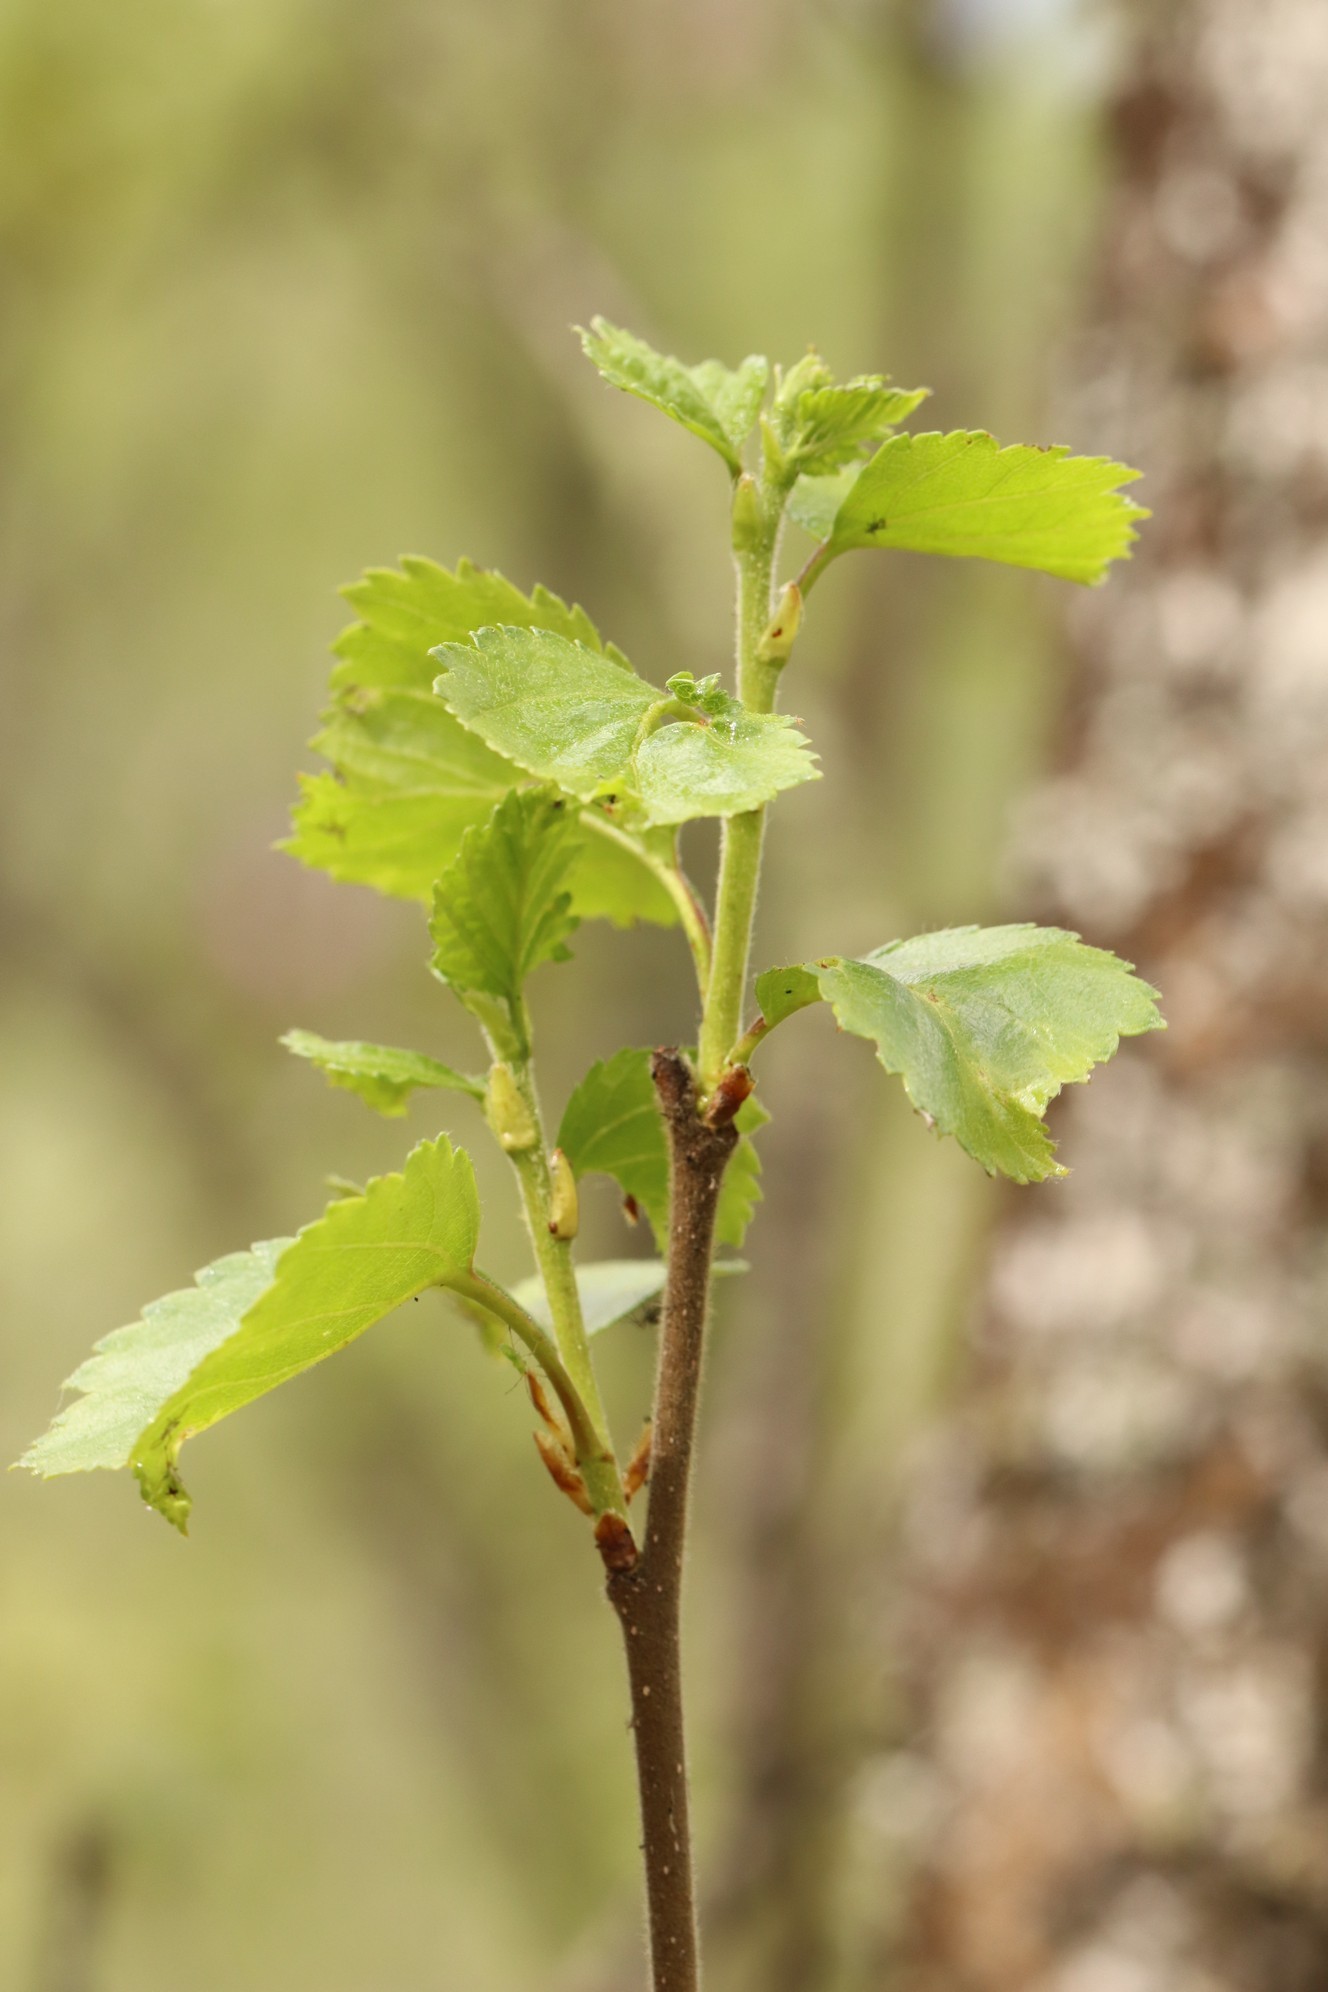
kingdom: Plantae
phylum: Tracheophyta
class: Magnoliopsida
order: Fagales
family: Betulaceae
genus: Betula
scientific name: Betula pubescens
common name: Downy birch
